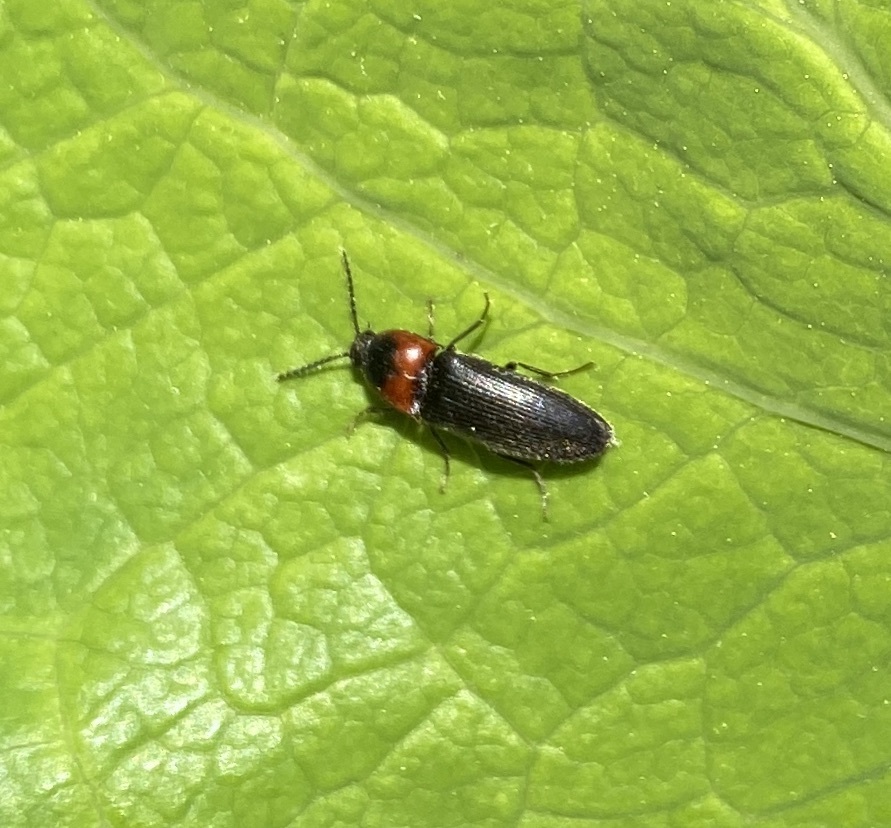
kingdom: Animalia
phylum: Arthropoda
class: Insecta
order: Coleoptera
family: Elateridae
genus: Ampedus
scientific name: Ampedus rubricus
